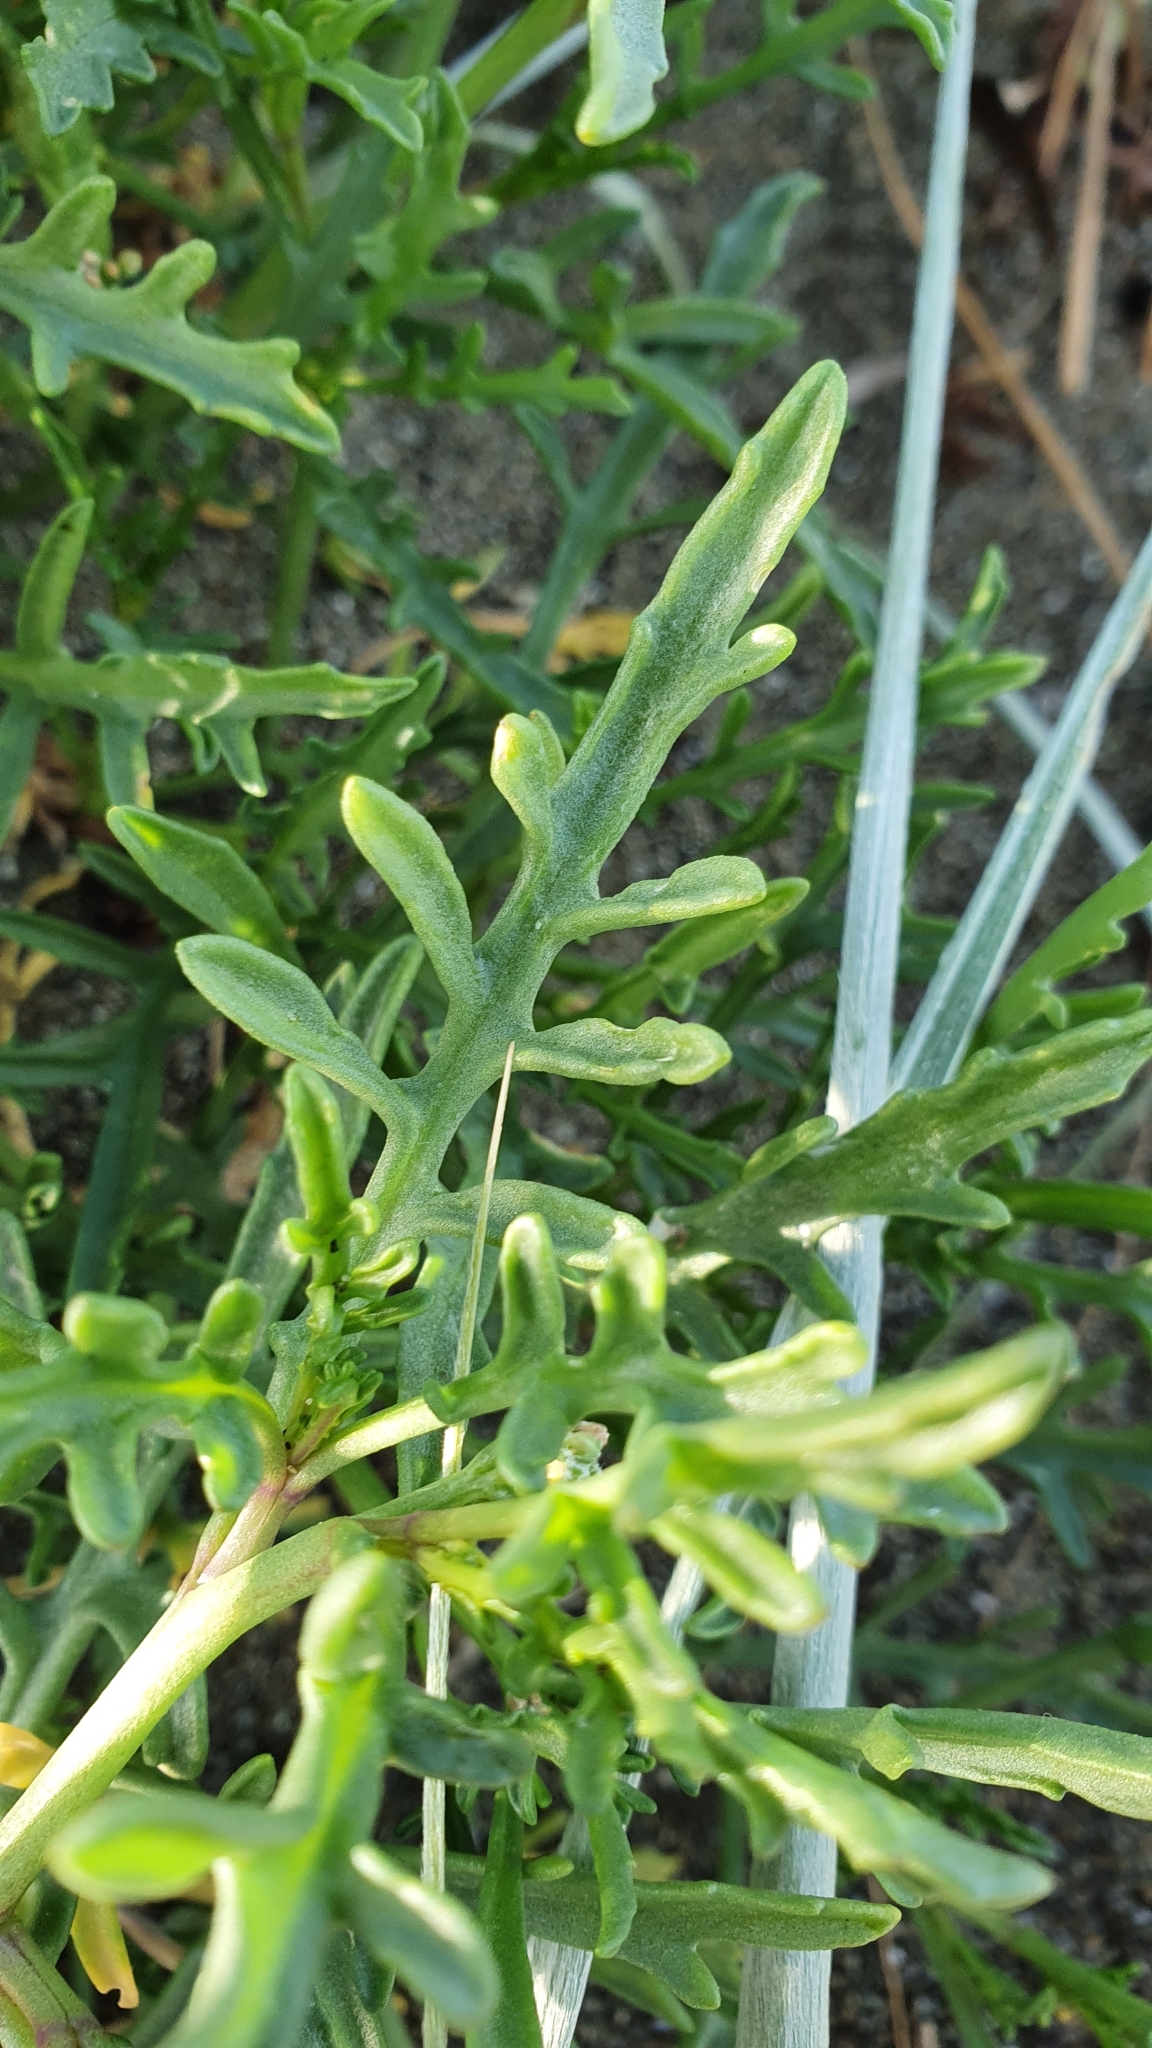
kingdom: Plantae
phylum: Tracheophyta
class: Magnoliopsida
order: Brassicales
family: Brassicaceae
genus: Cakile
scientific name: Cakile maritima
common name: Sea rocket
